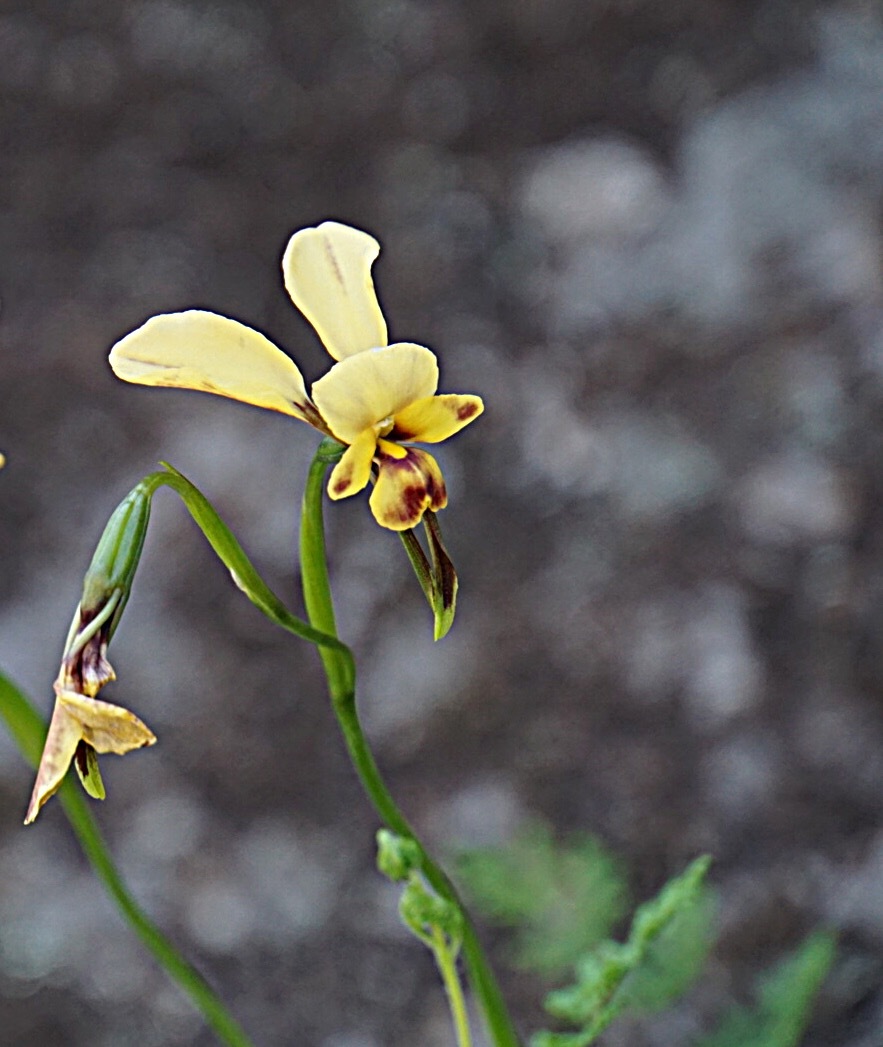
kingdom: Plantae
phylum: Tracheophyta
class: Liliopsida
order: Asparagales
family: Orchidaceae
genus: Diuris
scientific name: Diuris oraria
